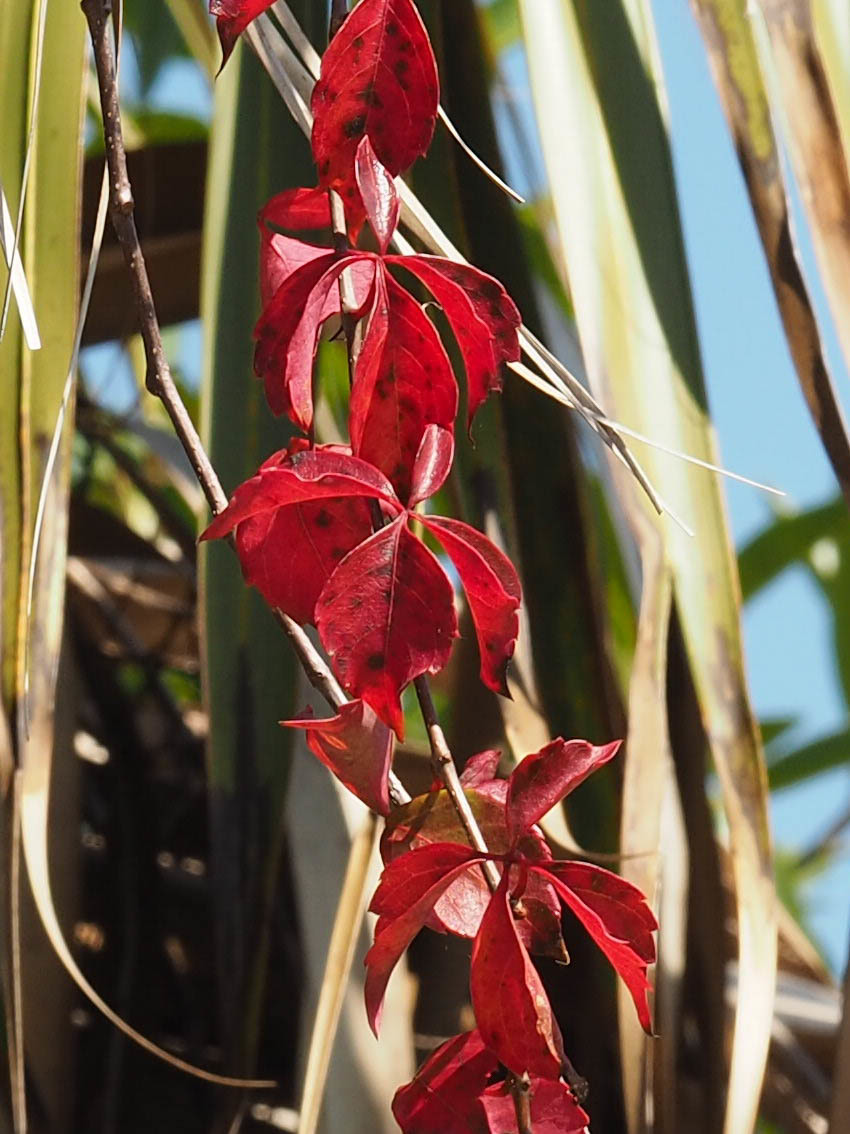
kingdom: Plantae
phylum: Tracheophyta
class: Magnoliopsida
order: Vitales
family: Vitaceae
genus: Parthenocissus
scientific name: Parthenocissus quinquefolia
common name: Virginia-creeper
